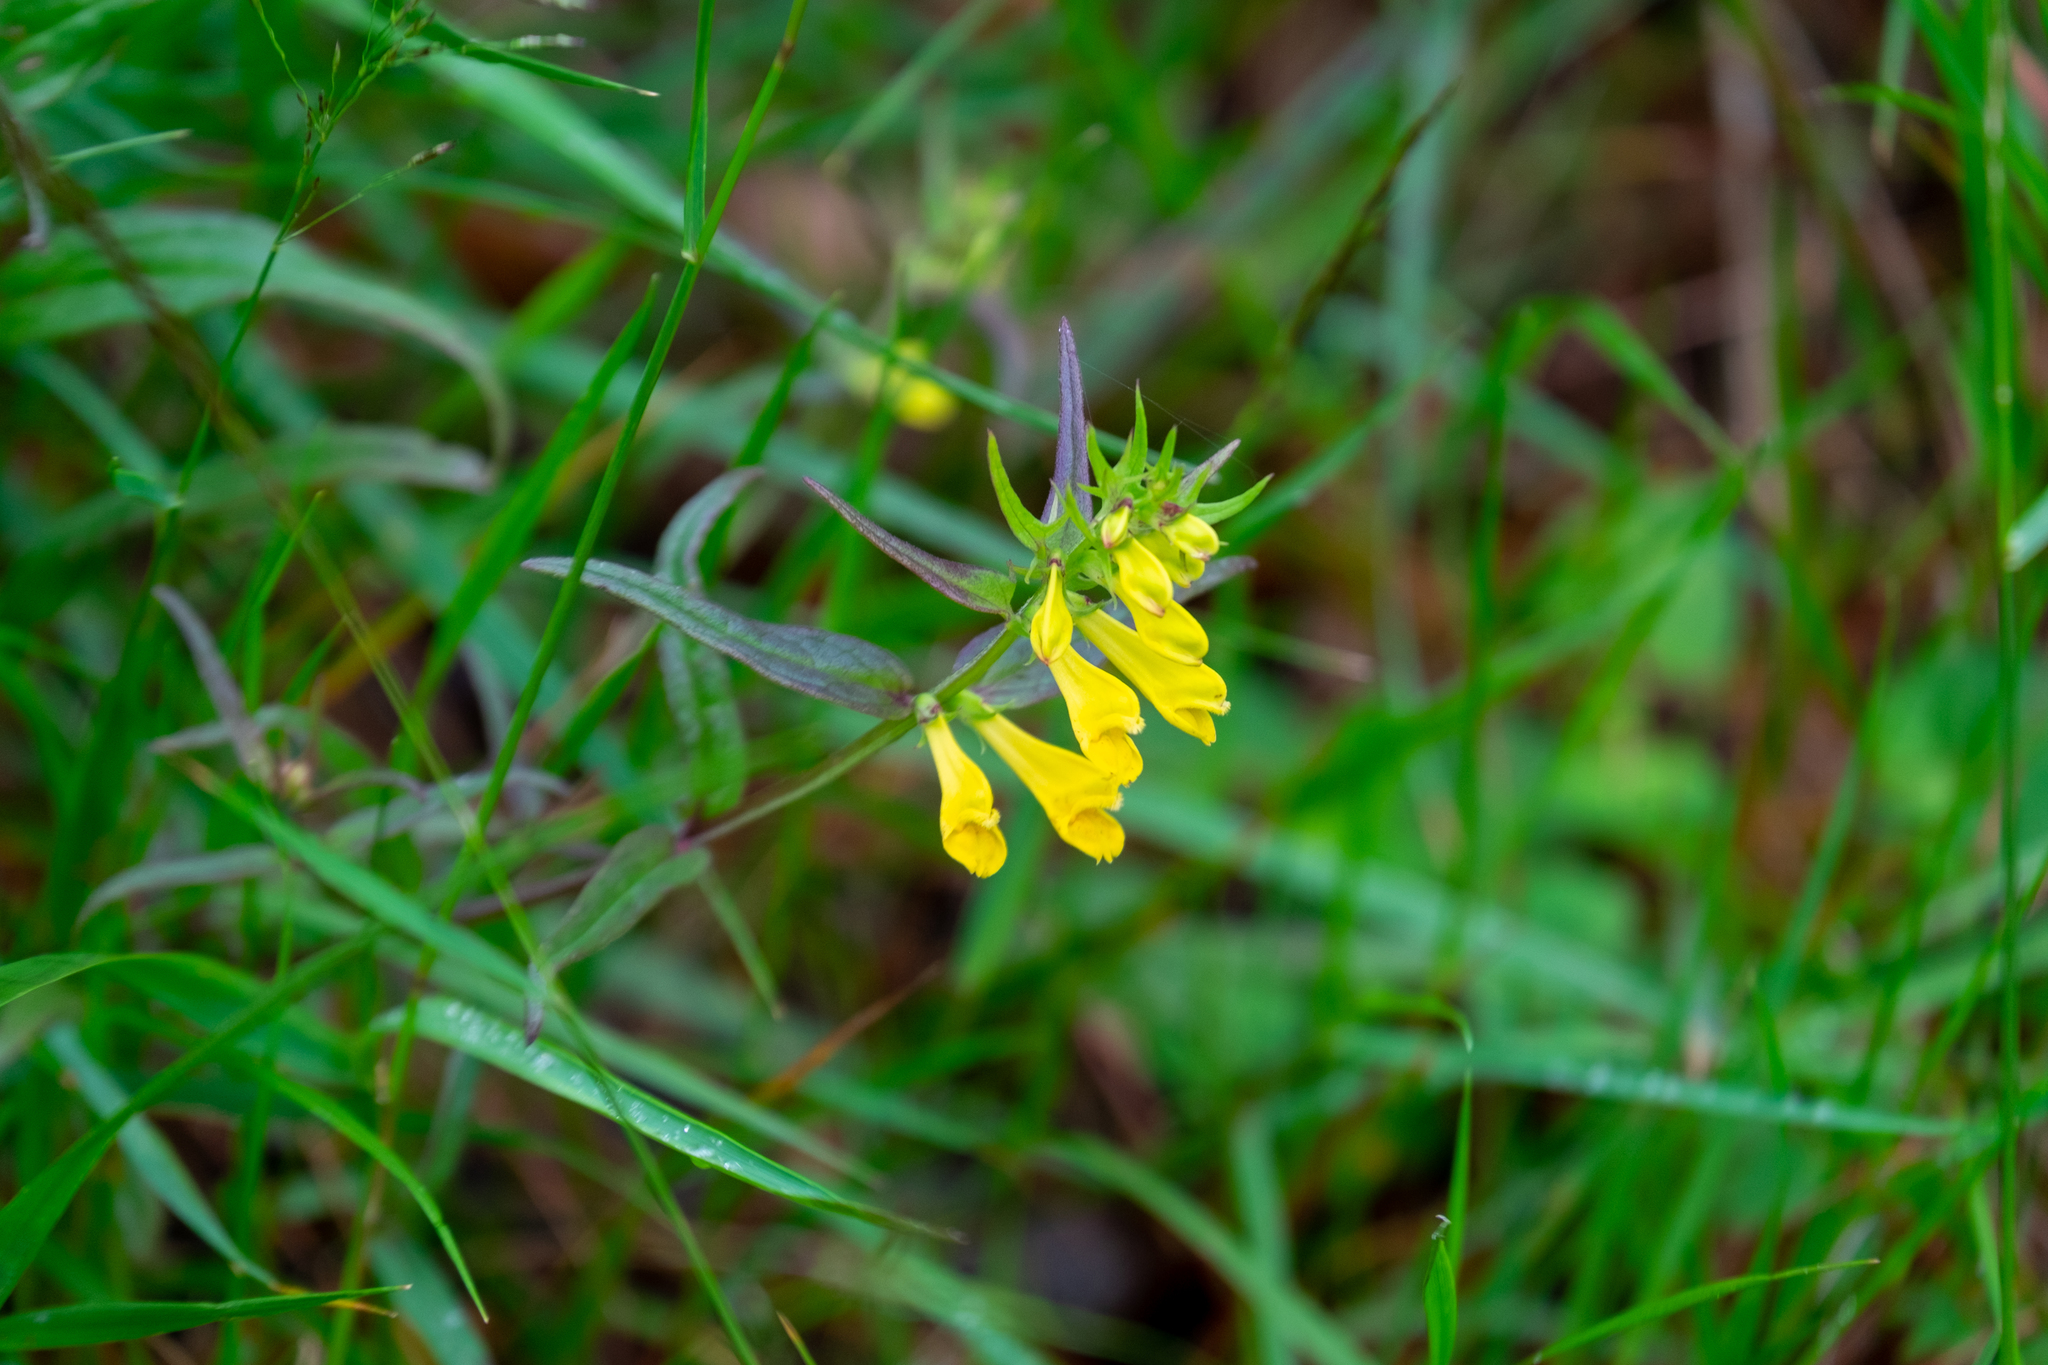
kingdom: Plantae
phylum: Tracheophyta
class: Magnoliopsida
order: Lamiales
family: Orobanchaceae
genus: Melampyrum
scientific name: Melampyrum pratense
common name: Common cow-wheat
